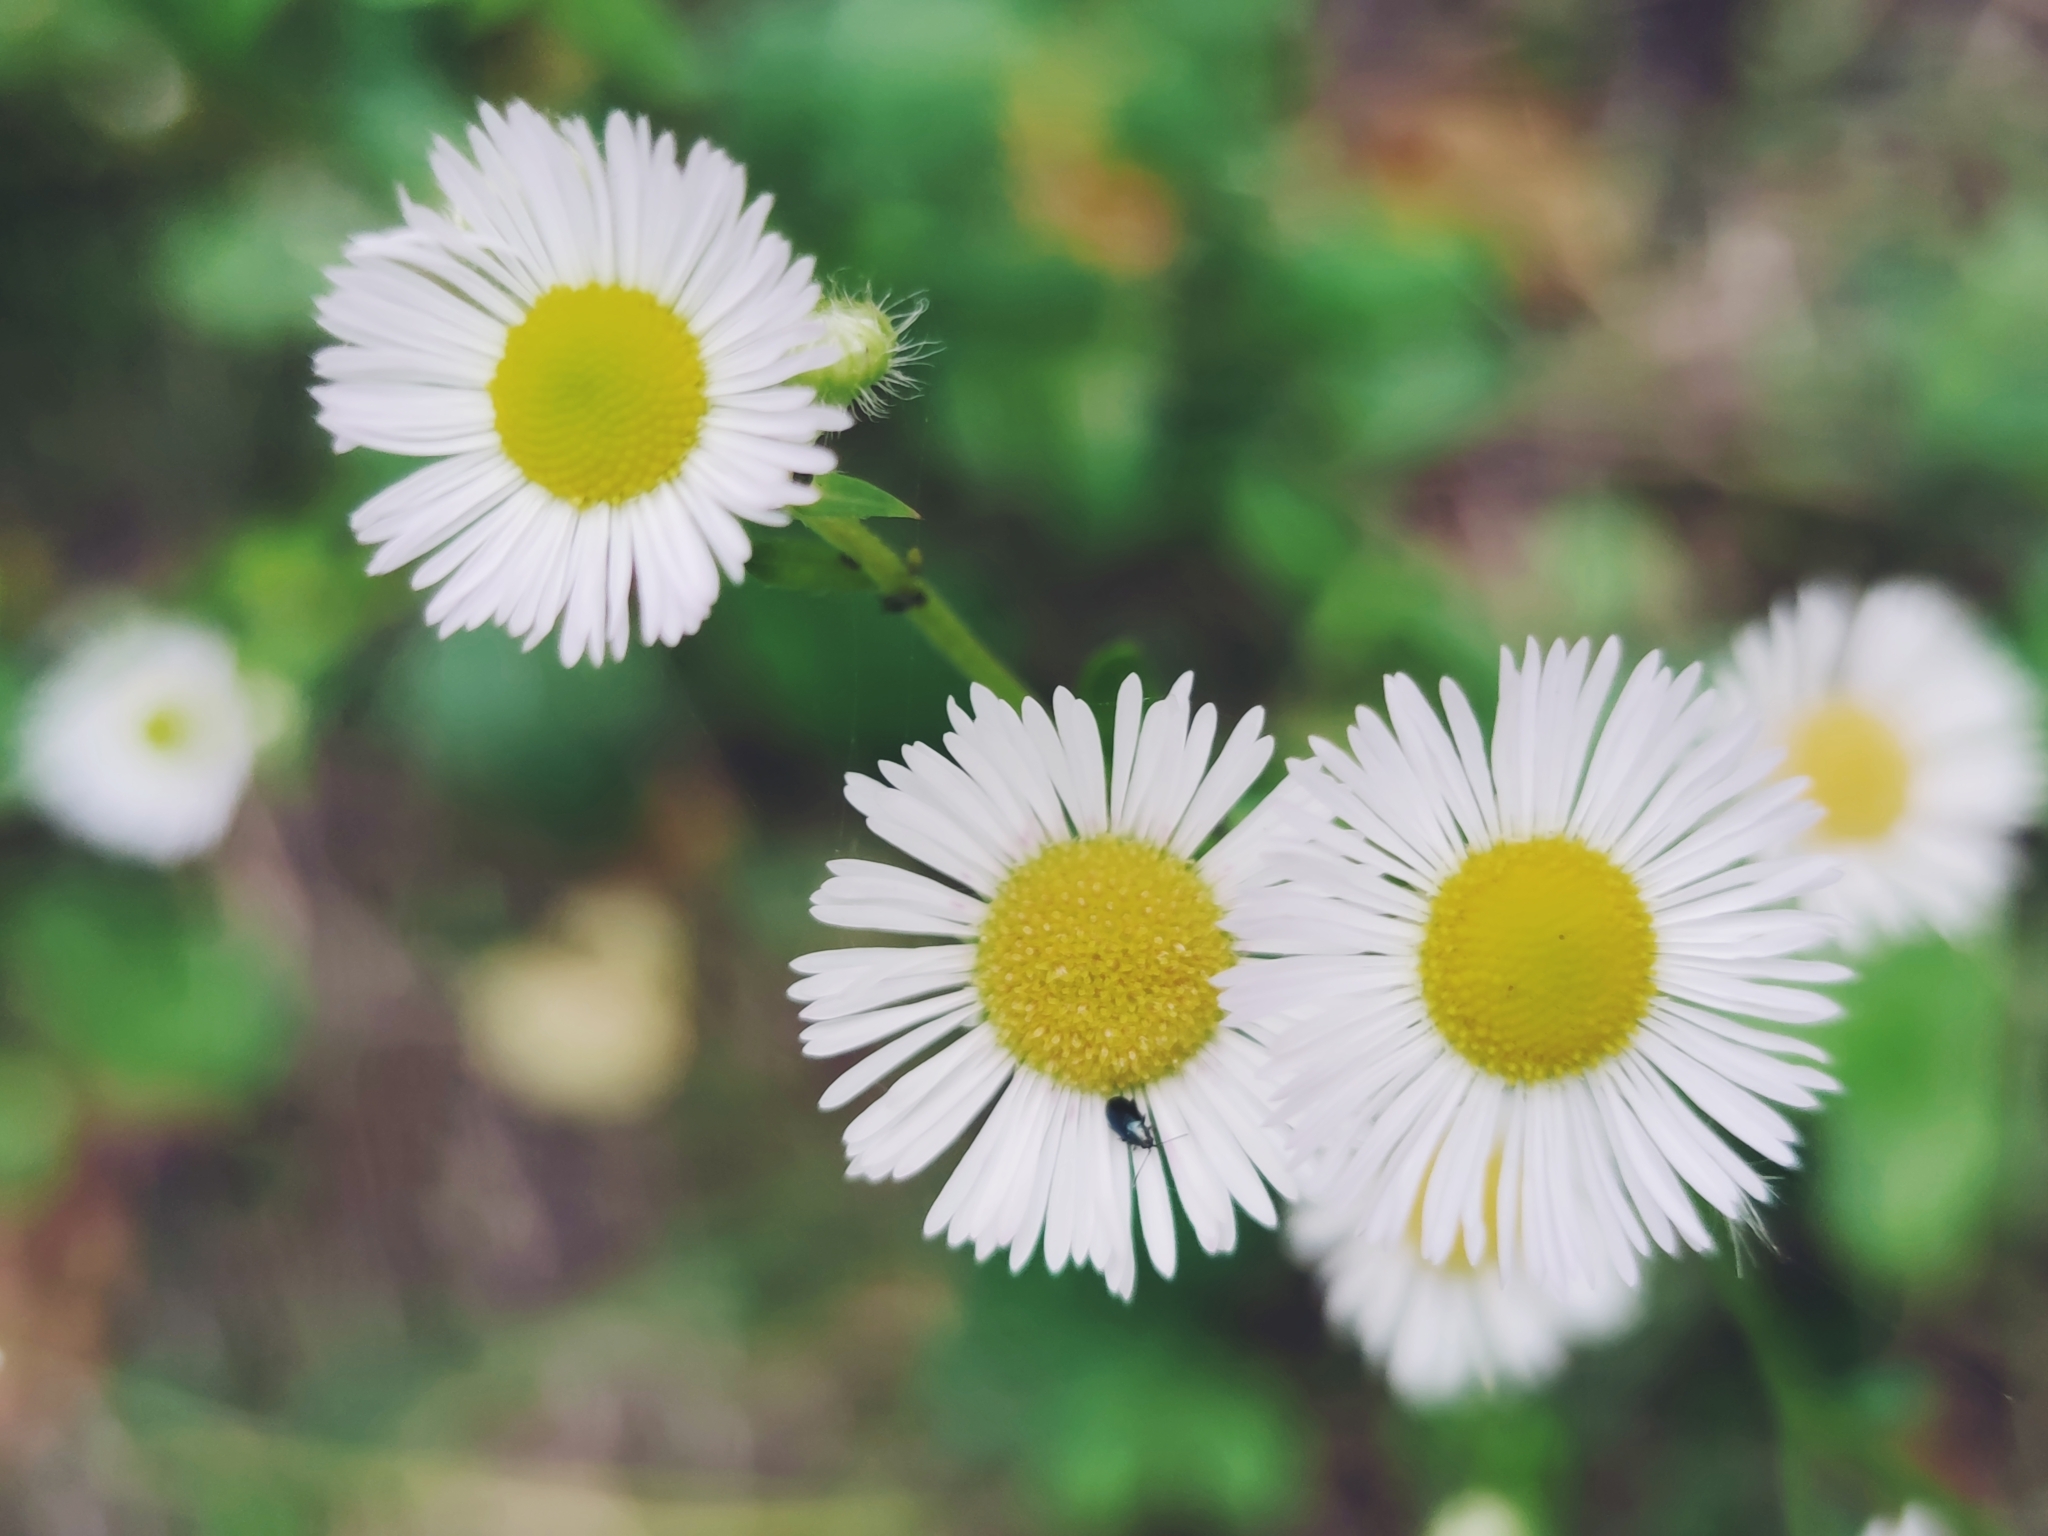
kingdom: Plantae
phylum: Tracheophyta
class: Magnoliopsida
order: Asterales
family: Asteraceae
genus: Erigeron
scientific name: Erigeron annuus
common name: Tall fleabane
